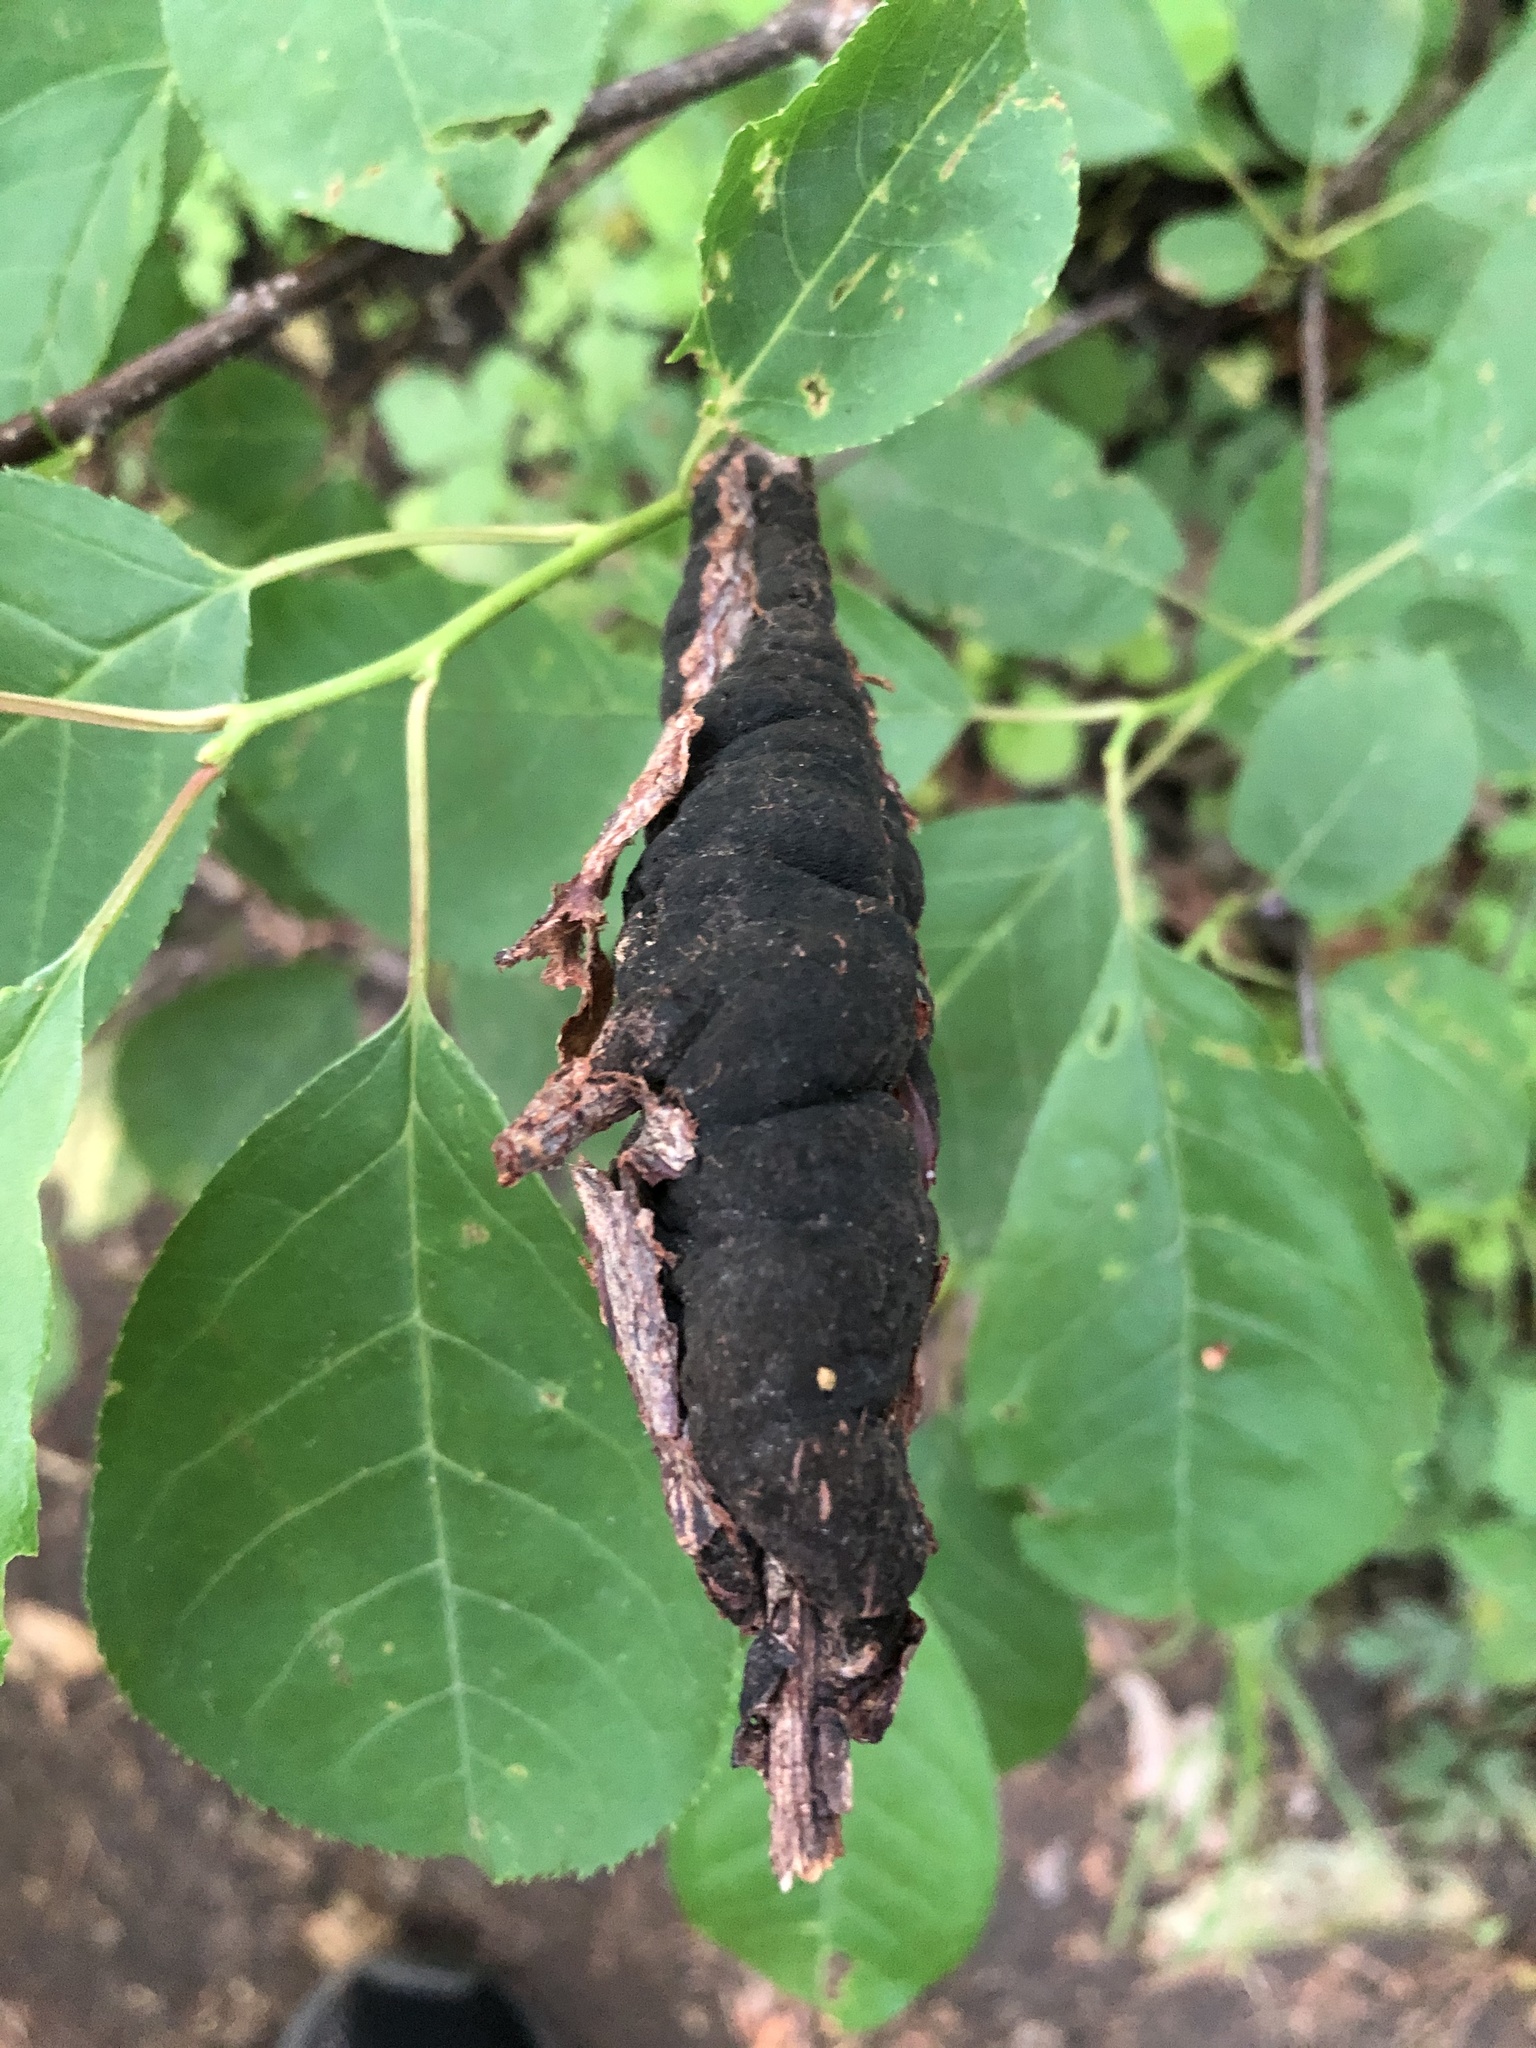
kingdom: Fungi
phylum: Ascomycota
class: Dothideomycetes
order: Venturiales
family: Venturiaceae
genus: Apiosporina
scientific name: Apiosporina morbosa
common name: Black knot
